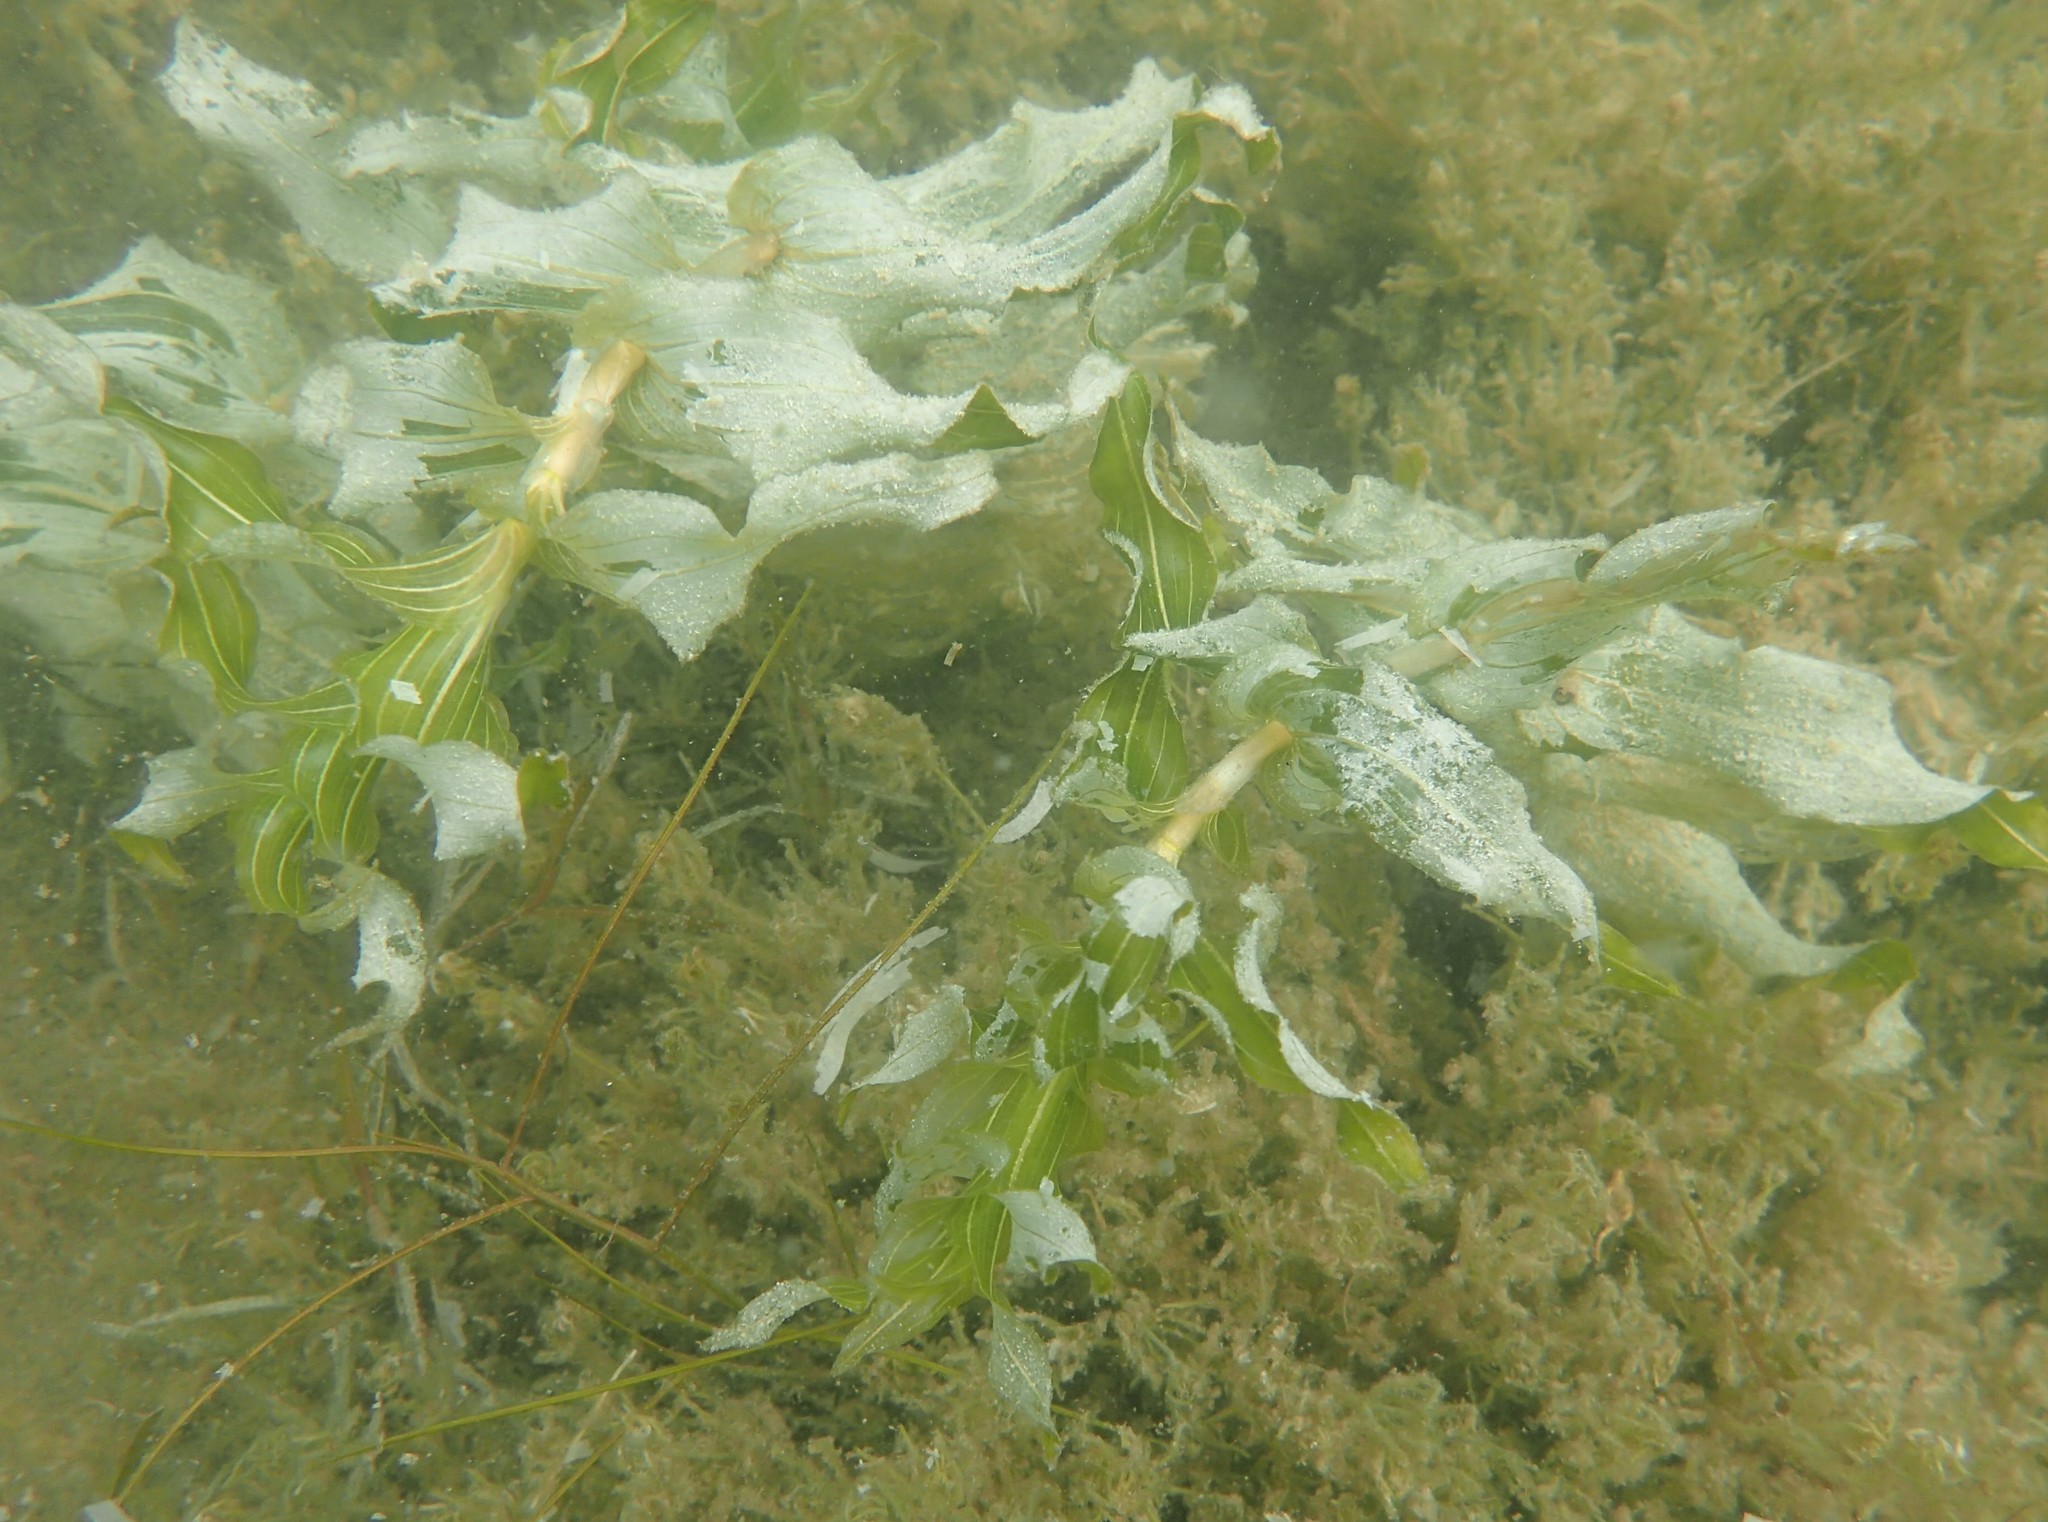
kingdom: Plantae
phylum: Tracheophyta
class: Liliopsida
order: Alismatales
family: Potamogetonaceae
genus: Potamogeton
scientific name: Potamogeton perfoliatus
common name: Perfoliate pondweed
